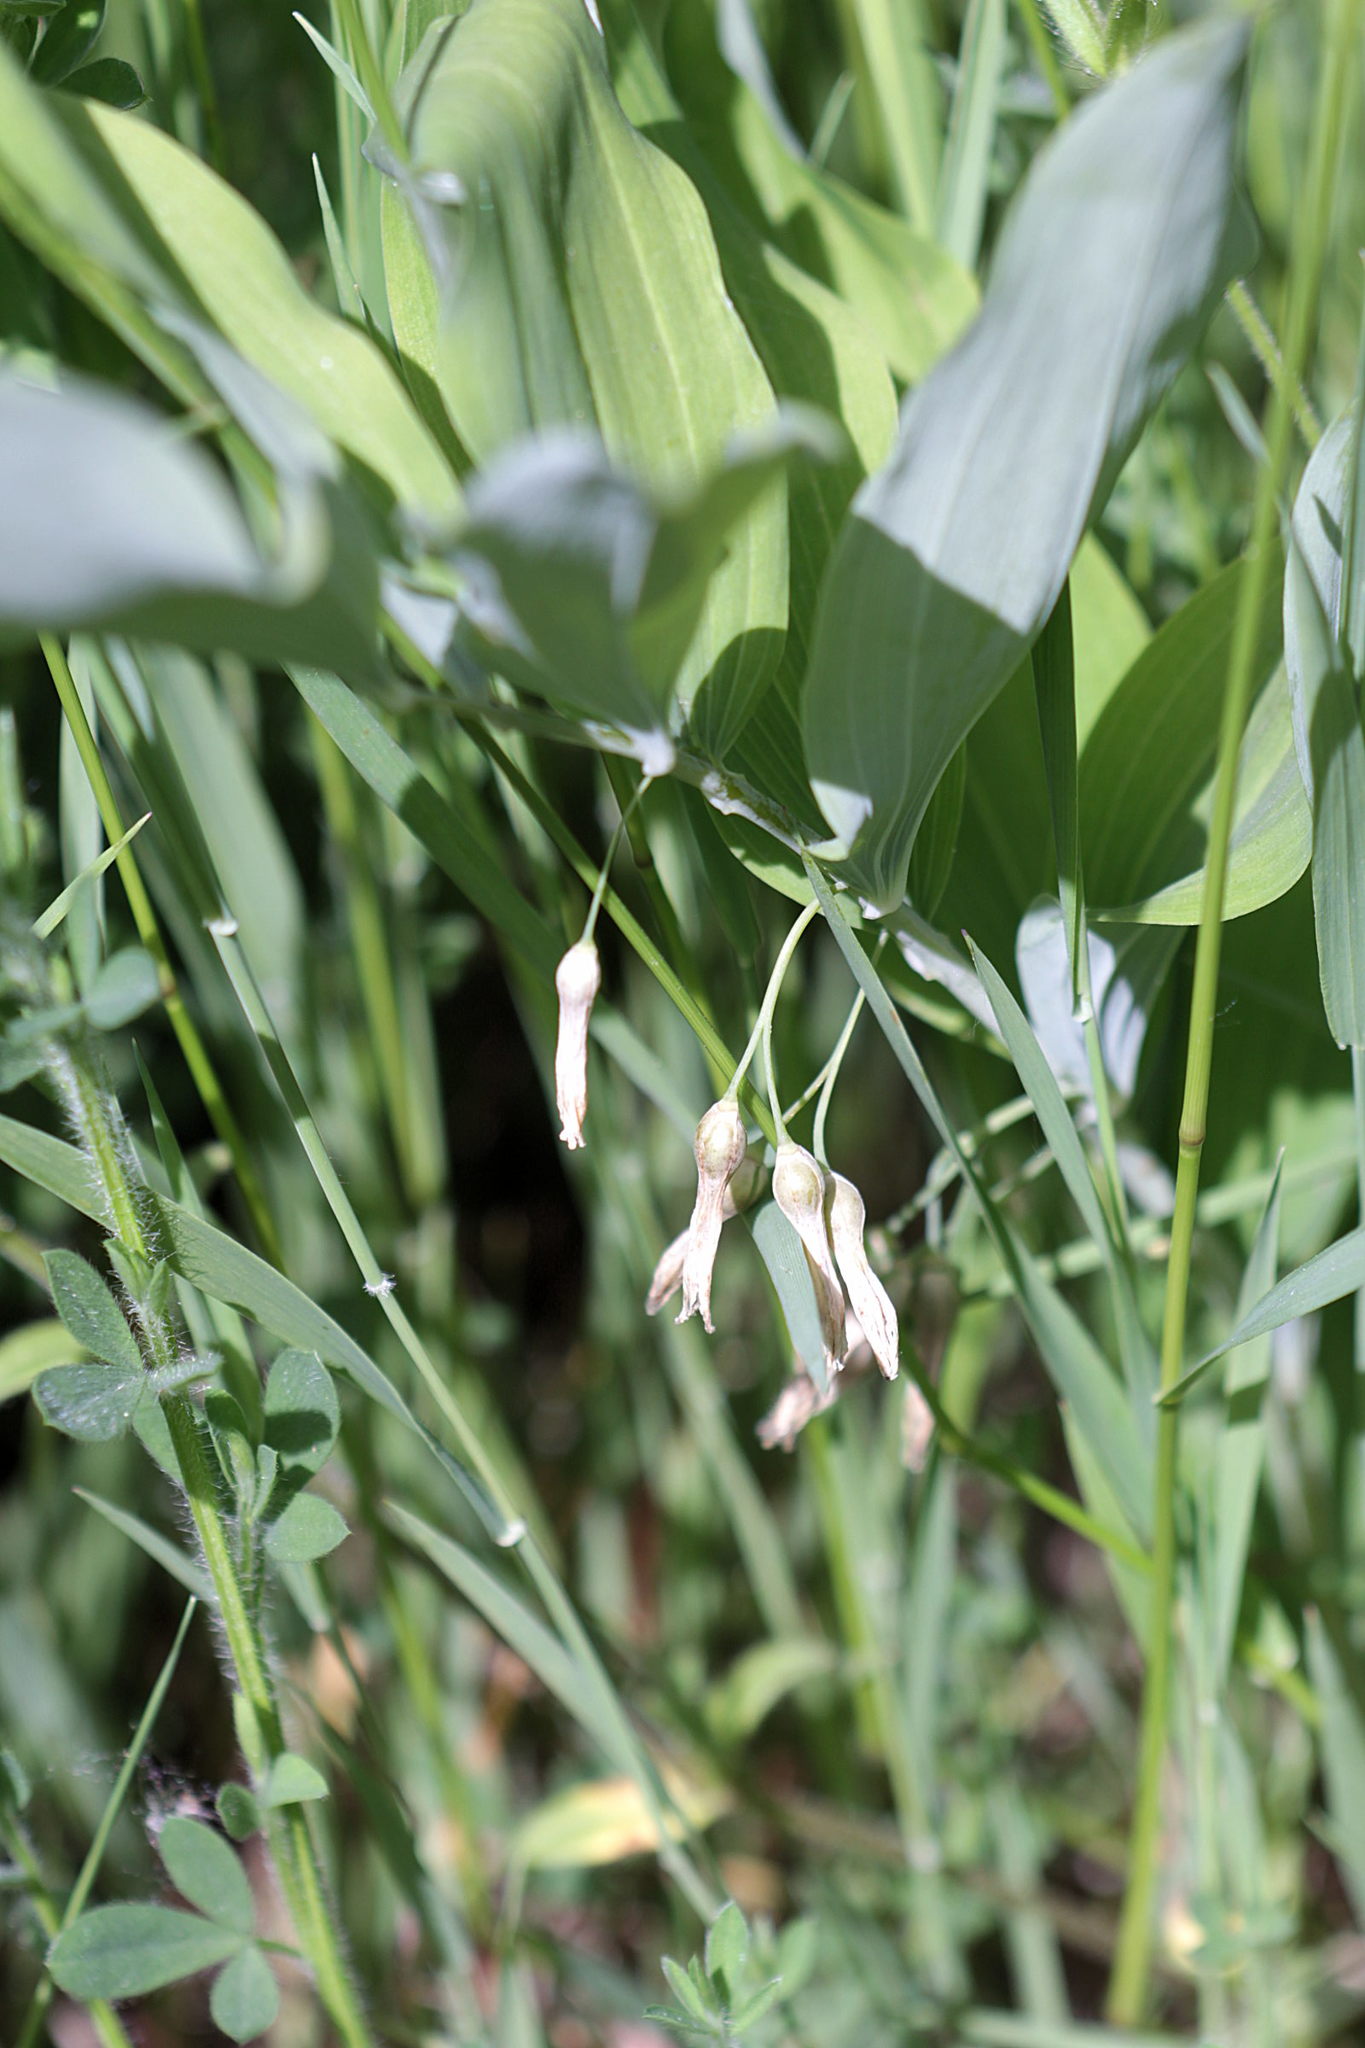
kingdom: Plantae
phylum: Tracheophyta
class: Liliopsida
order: Asparagales
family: Asparagaceae
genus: Polygonatum
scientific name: Polygonatum multiflorum
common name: Solomon's-seal
